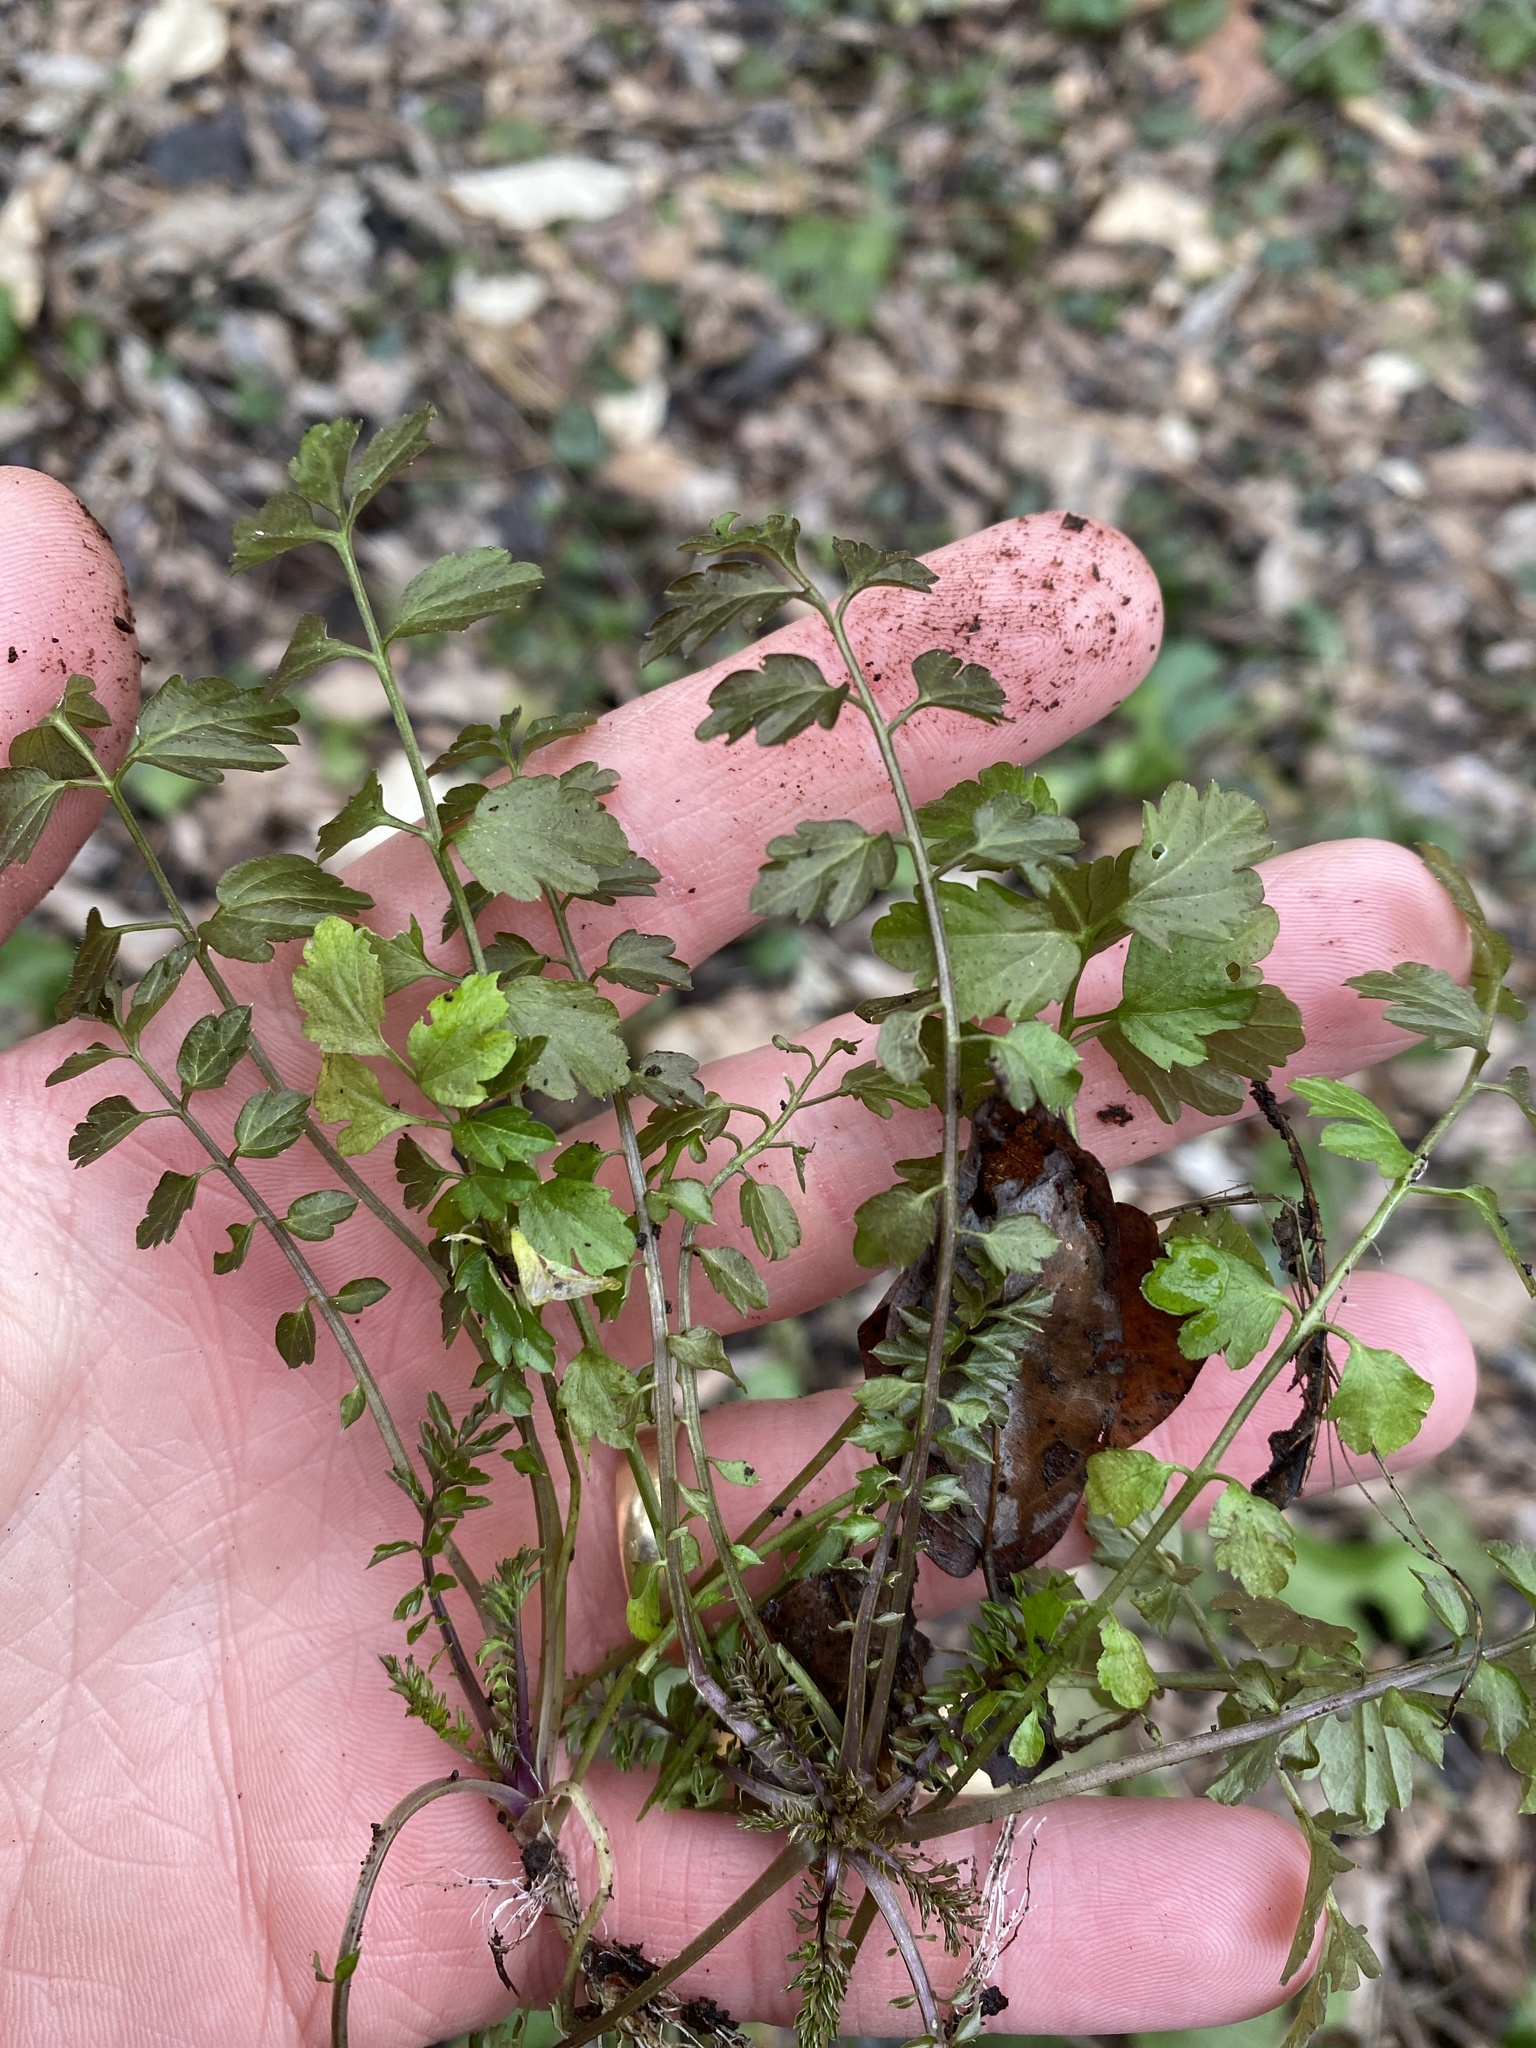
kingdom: Plantae
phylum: Tracheophyta
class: Magnoliopsida
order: Brassicales
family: Brassicaceae
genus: Cardamine
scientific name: Cardamine impatiens
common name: Narrow-leaved bitter-cress
